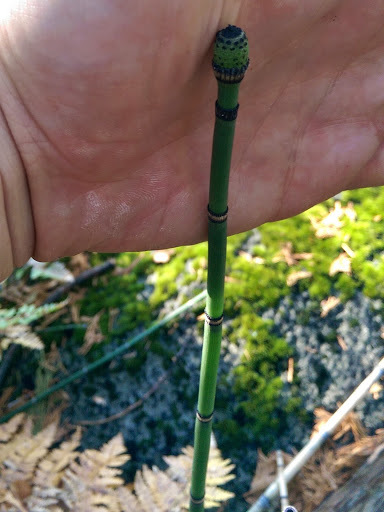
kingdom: Plantae
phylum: Tracheophyta
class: Polypodiopsida
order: Equisetales
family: Equisetaceae
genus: Equisetum
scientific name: Equisetum praealtum
